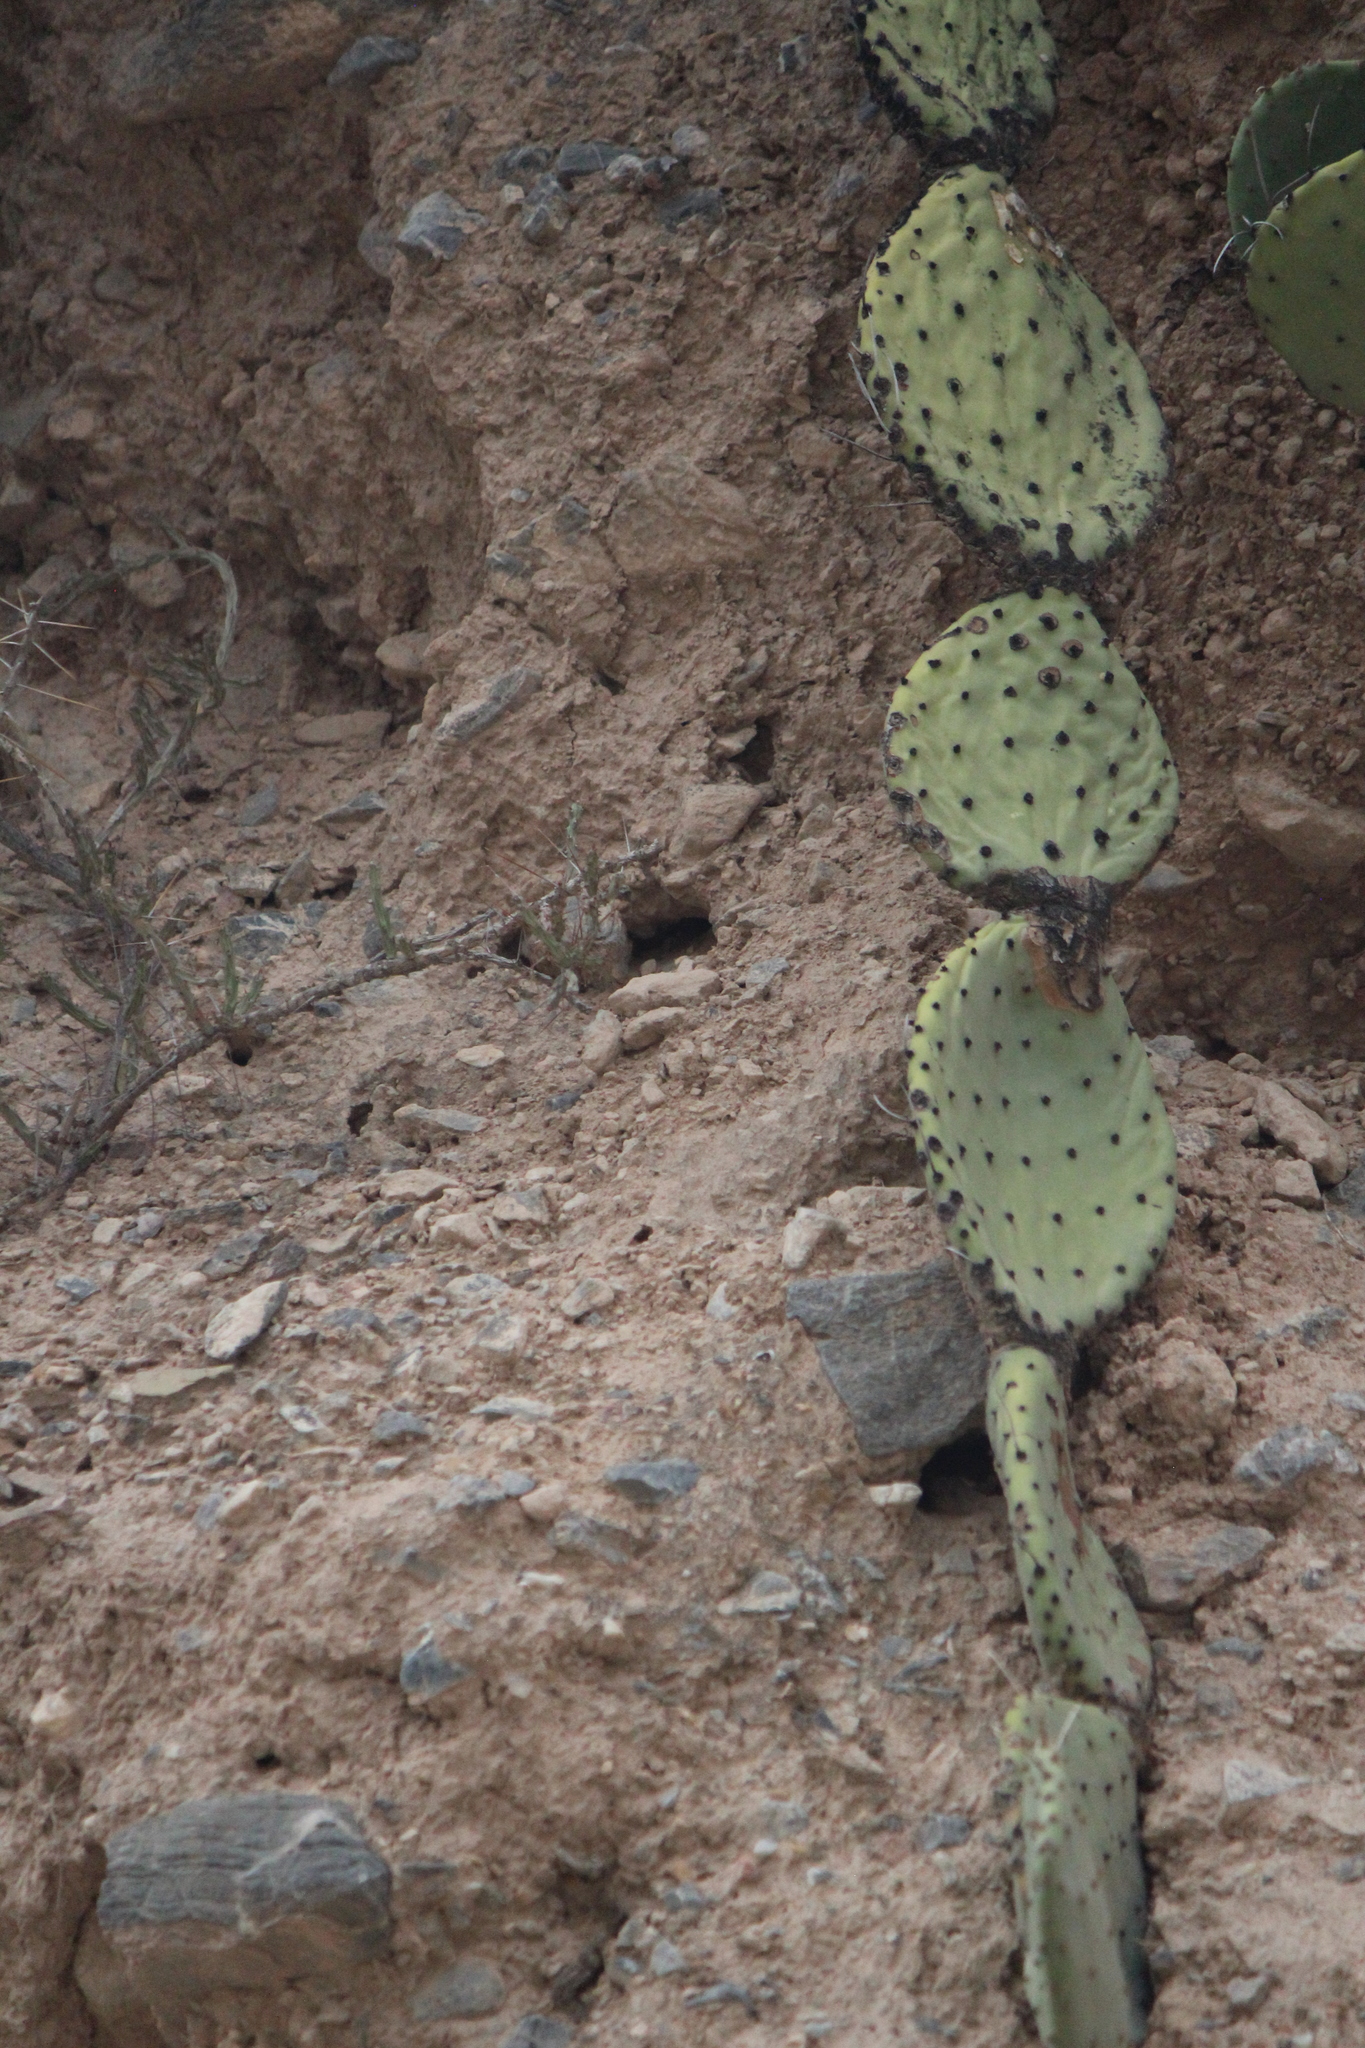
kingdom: Plantae
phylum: Tracheophyta
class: Magnoliopsida
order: Caryophyllales
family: Cactaceae
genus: Opuntia
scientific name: Opuntia stenopetala
